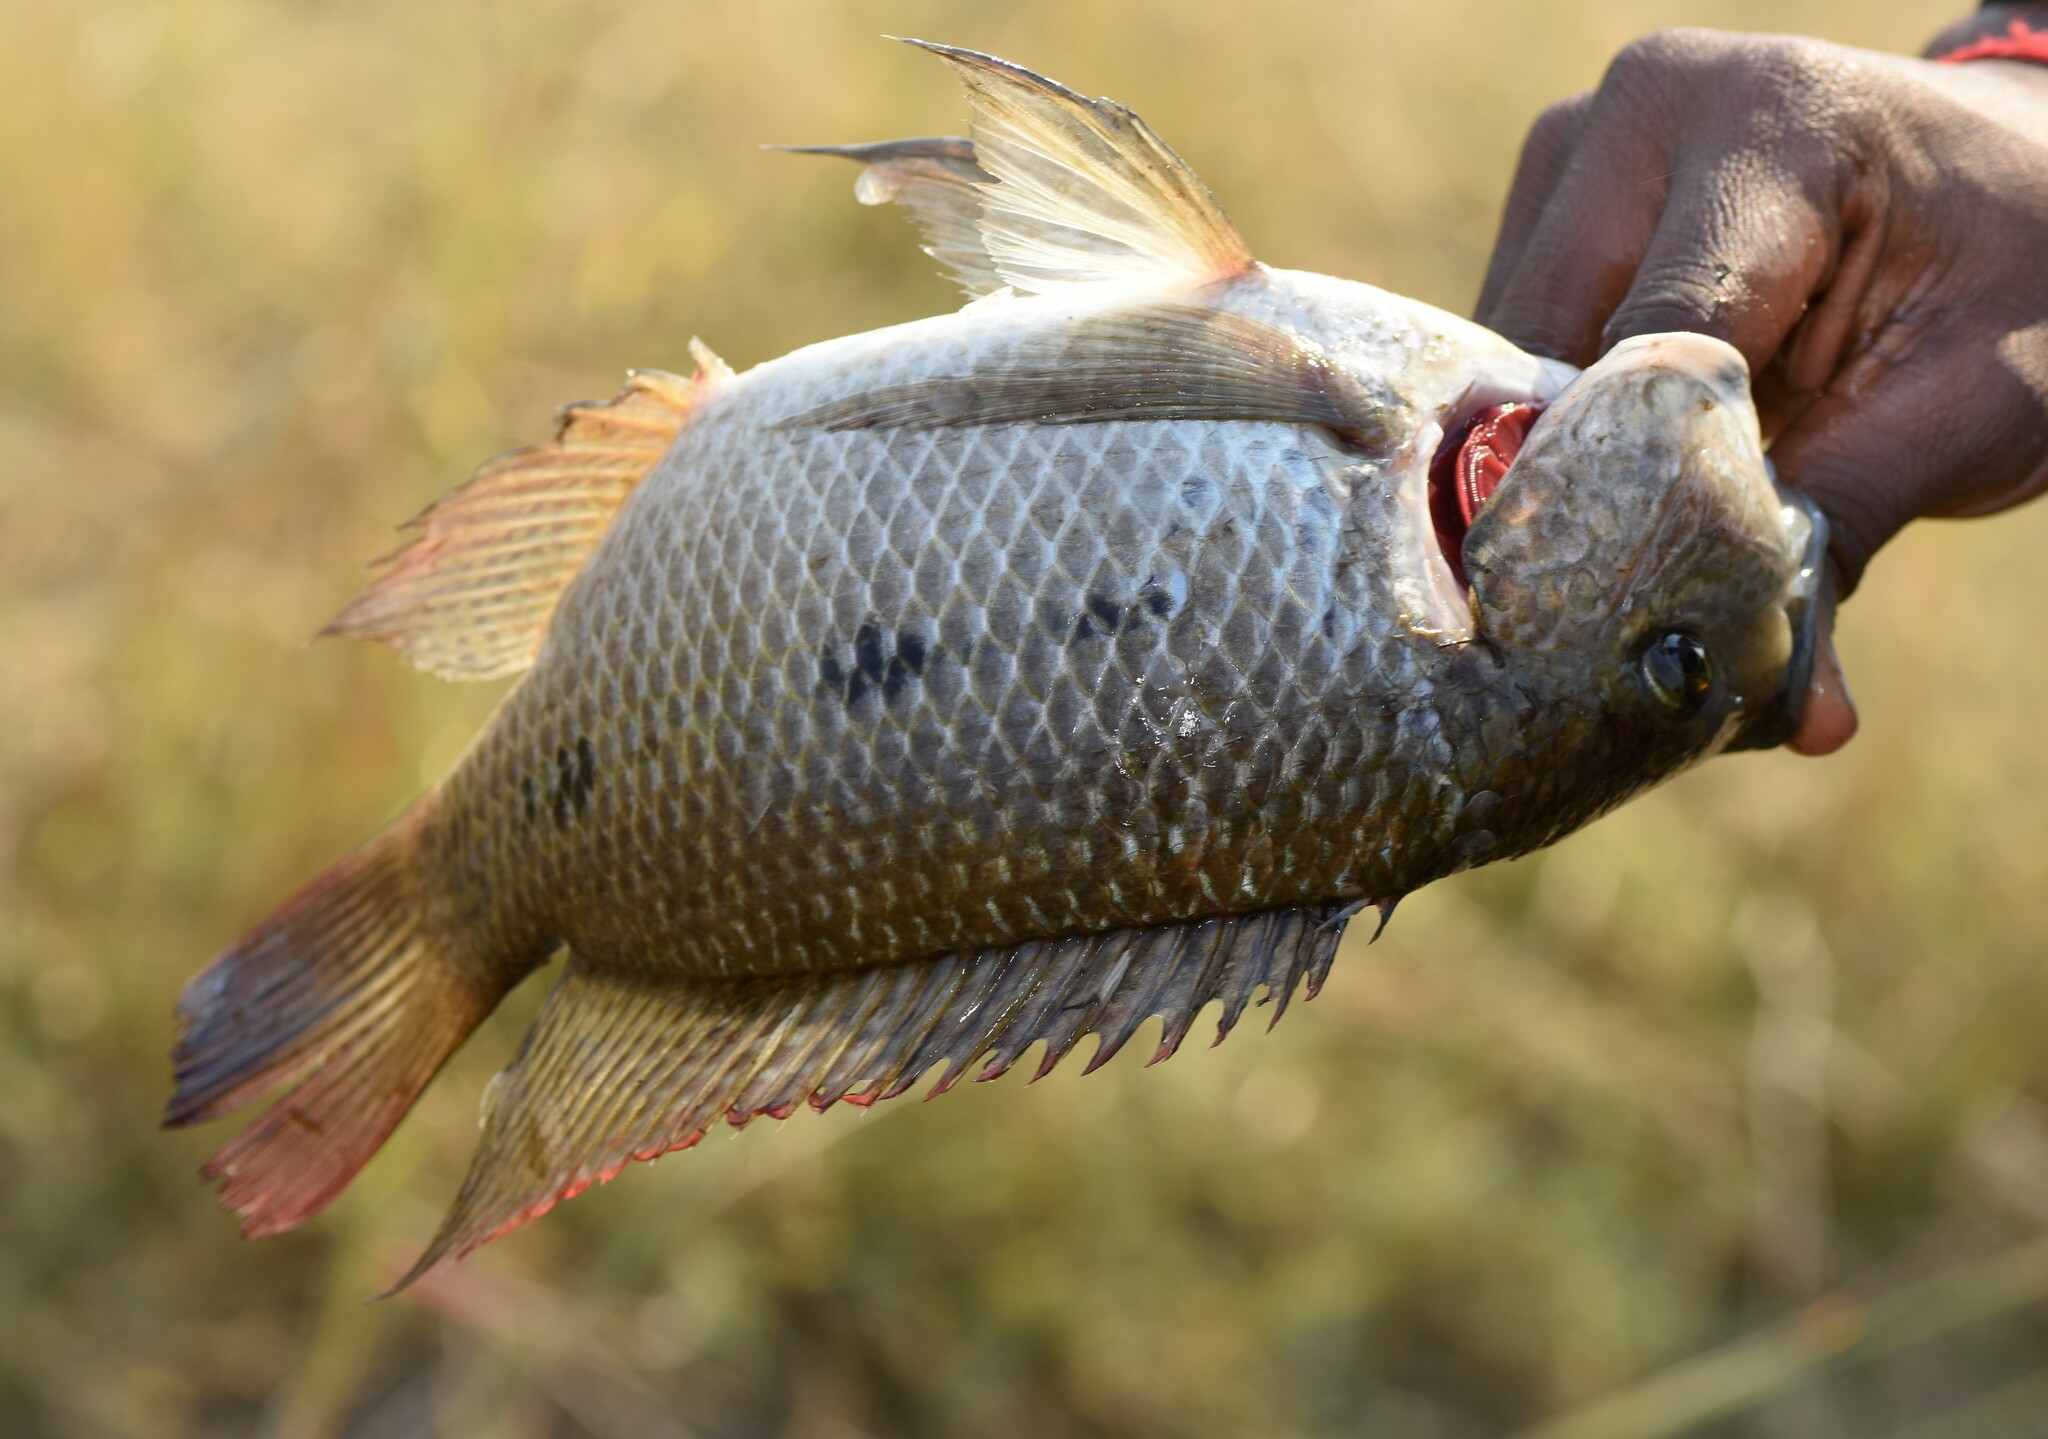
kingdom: Animalia
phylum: Chordata
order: Perciformes
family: Cichlidae
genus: Oreochromis
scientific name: Oreochromis andersonii
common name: Threespot tilapia
